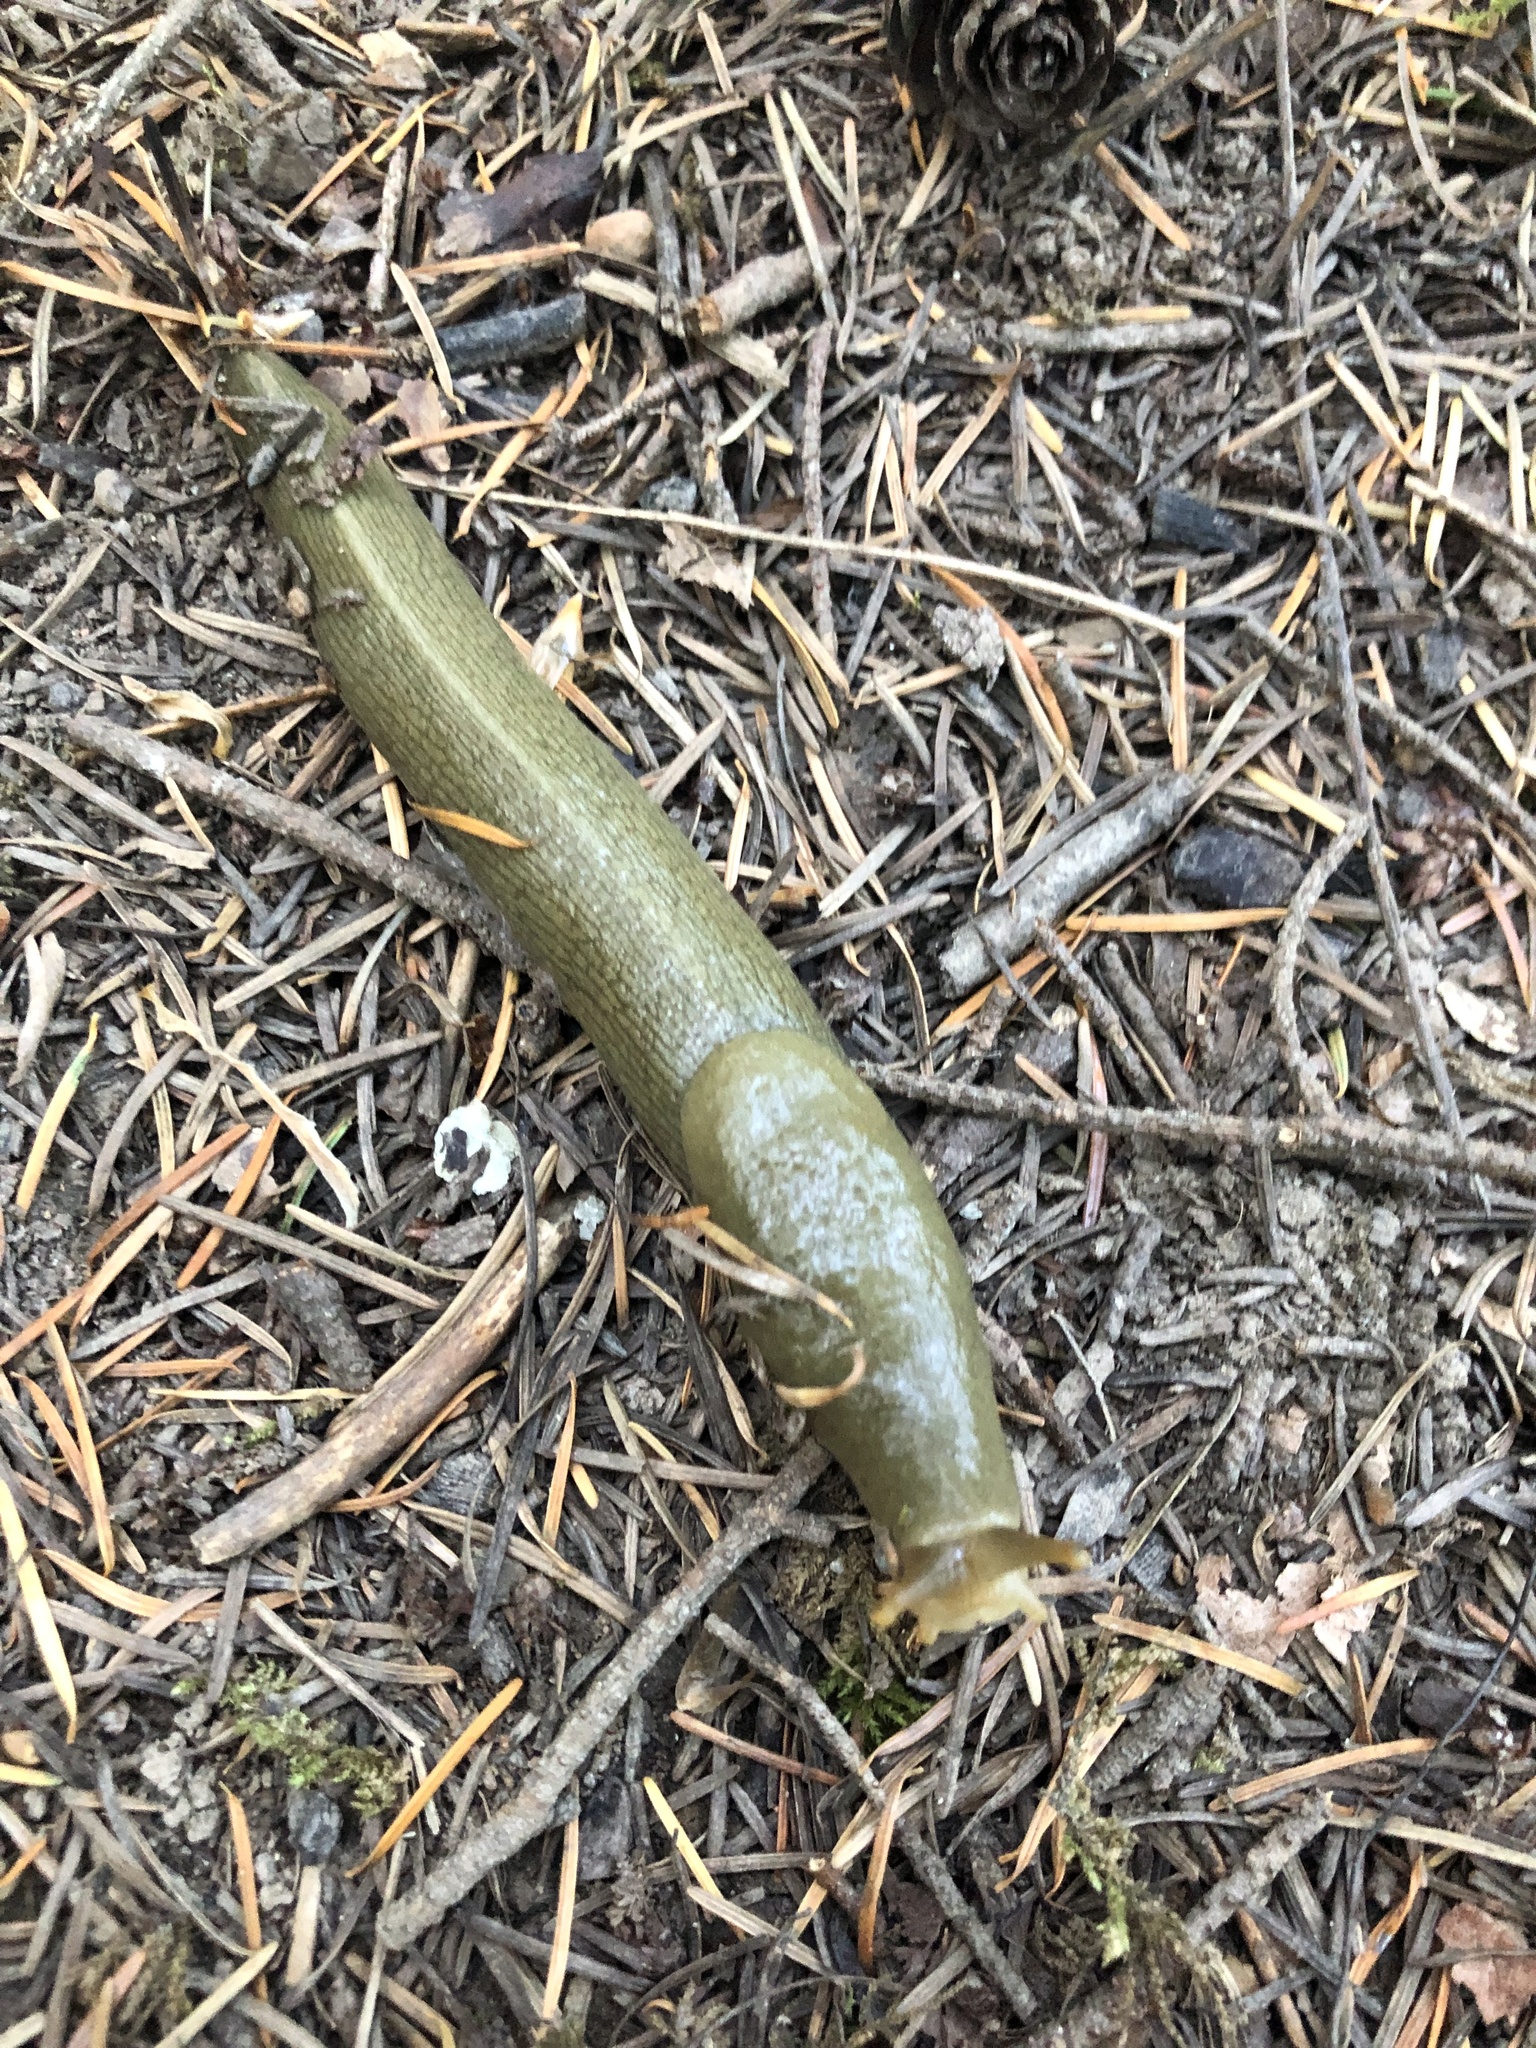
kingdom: Animalia
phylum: Mollusca
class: Gastropoda
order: Stylommatophora
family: Ariolimacidae
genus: Ariolimax
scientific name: Ariolimax columbianus
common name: Pacific banana slug
